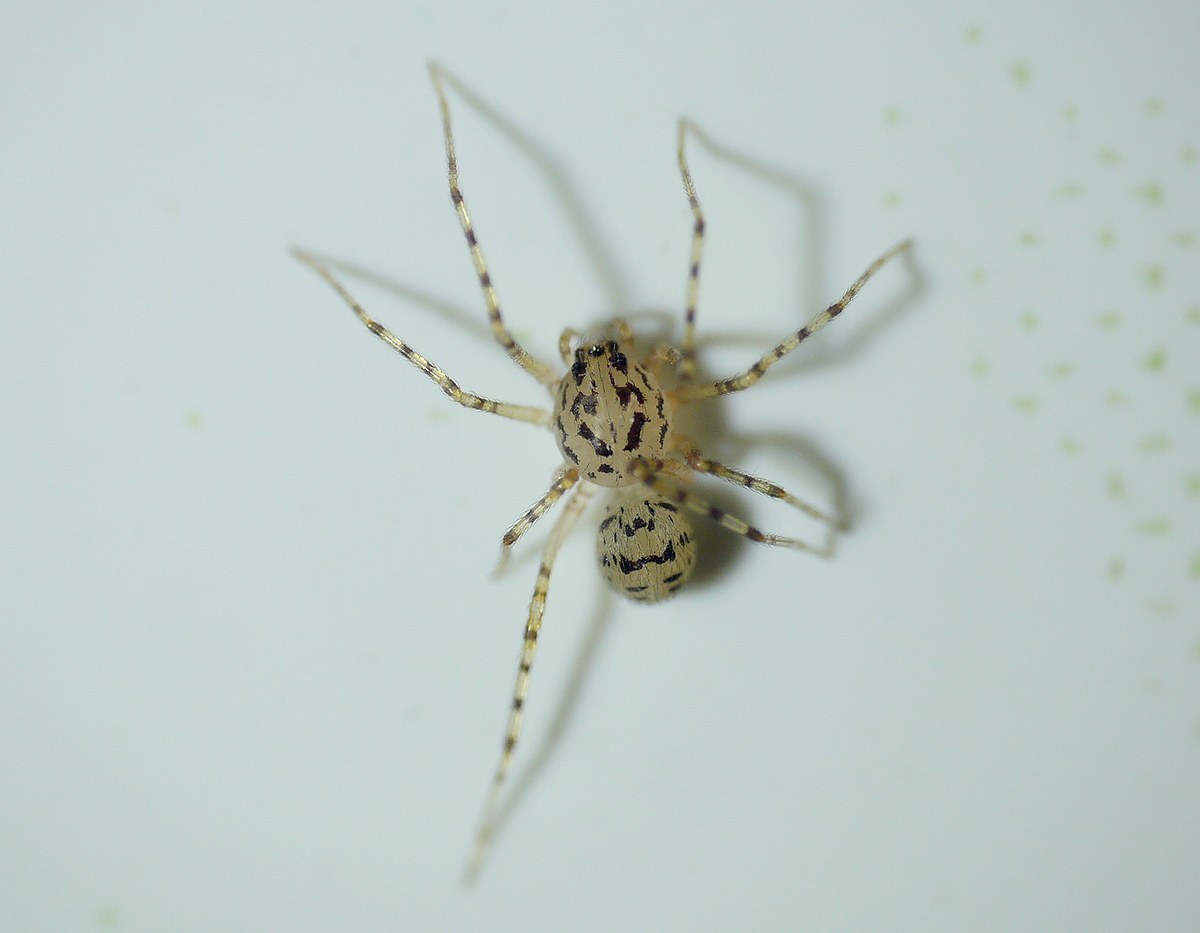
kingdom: Animalia
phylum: Arthropoda
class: Arachnida
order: Araneae
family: Scytodidae
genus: Scytodes
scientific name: Scytodes thoracica
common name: Spitting spider
